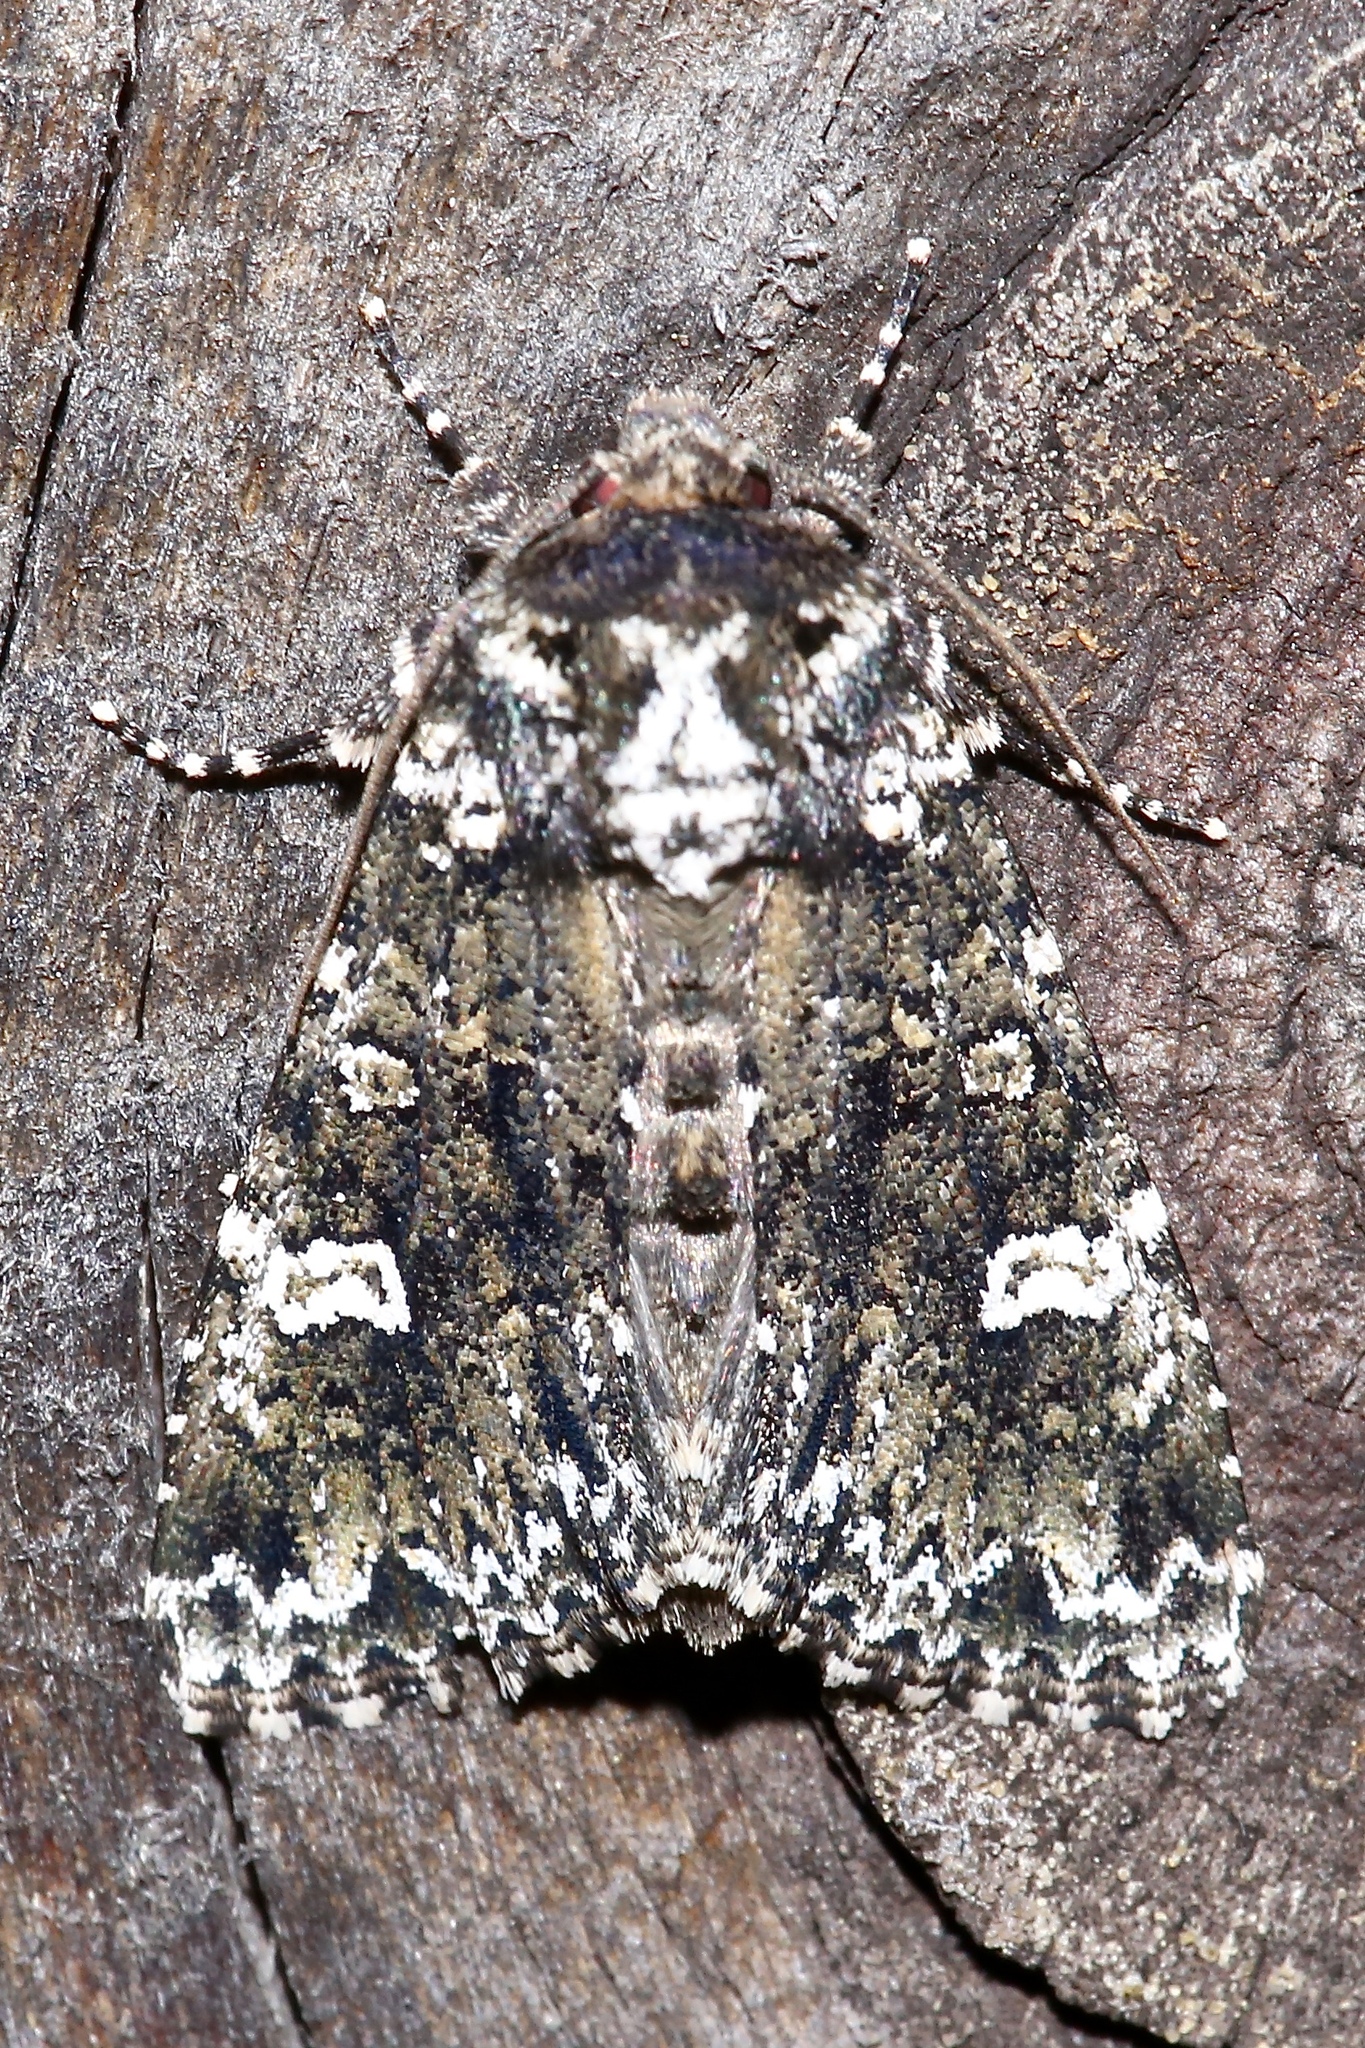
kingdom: Animalia
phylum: Arthropoda
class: Insecta
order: Lepidoptera
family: Noctuidae
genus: Melanchra
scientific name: Melanchra adjuncta
